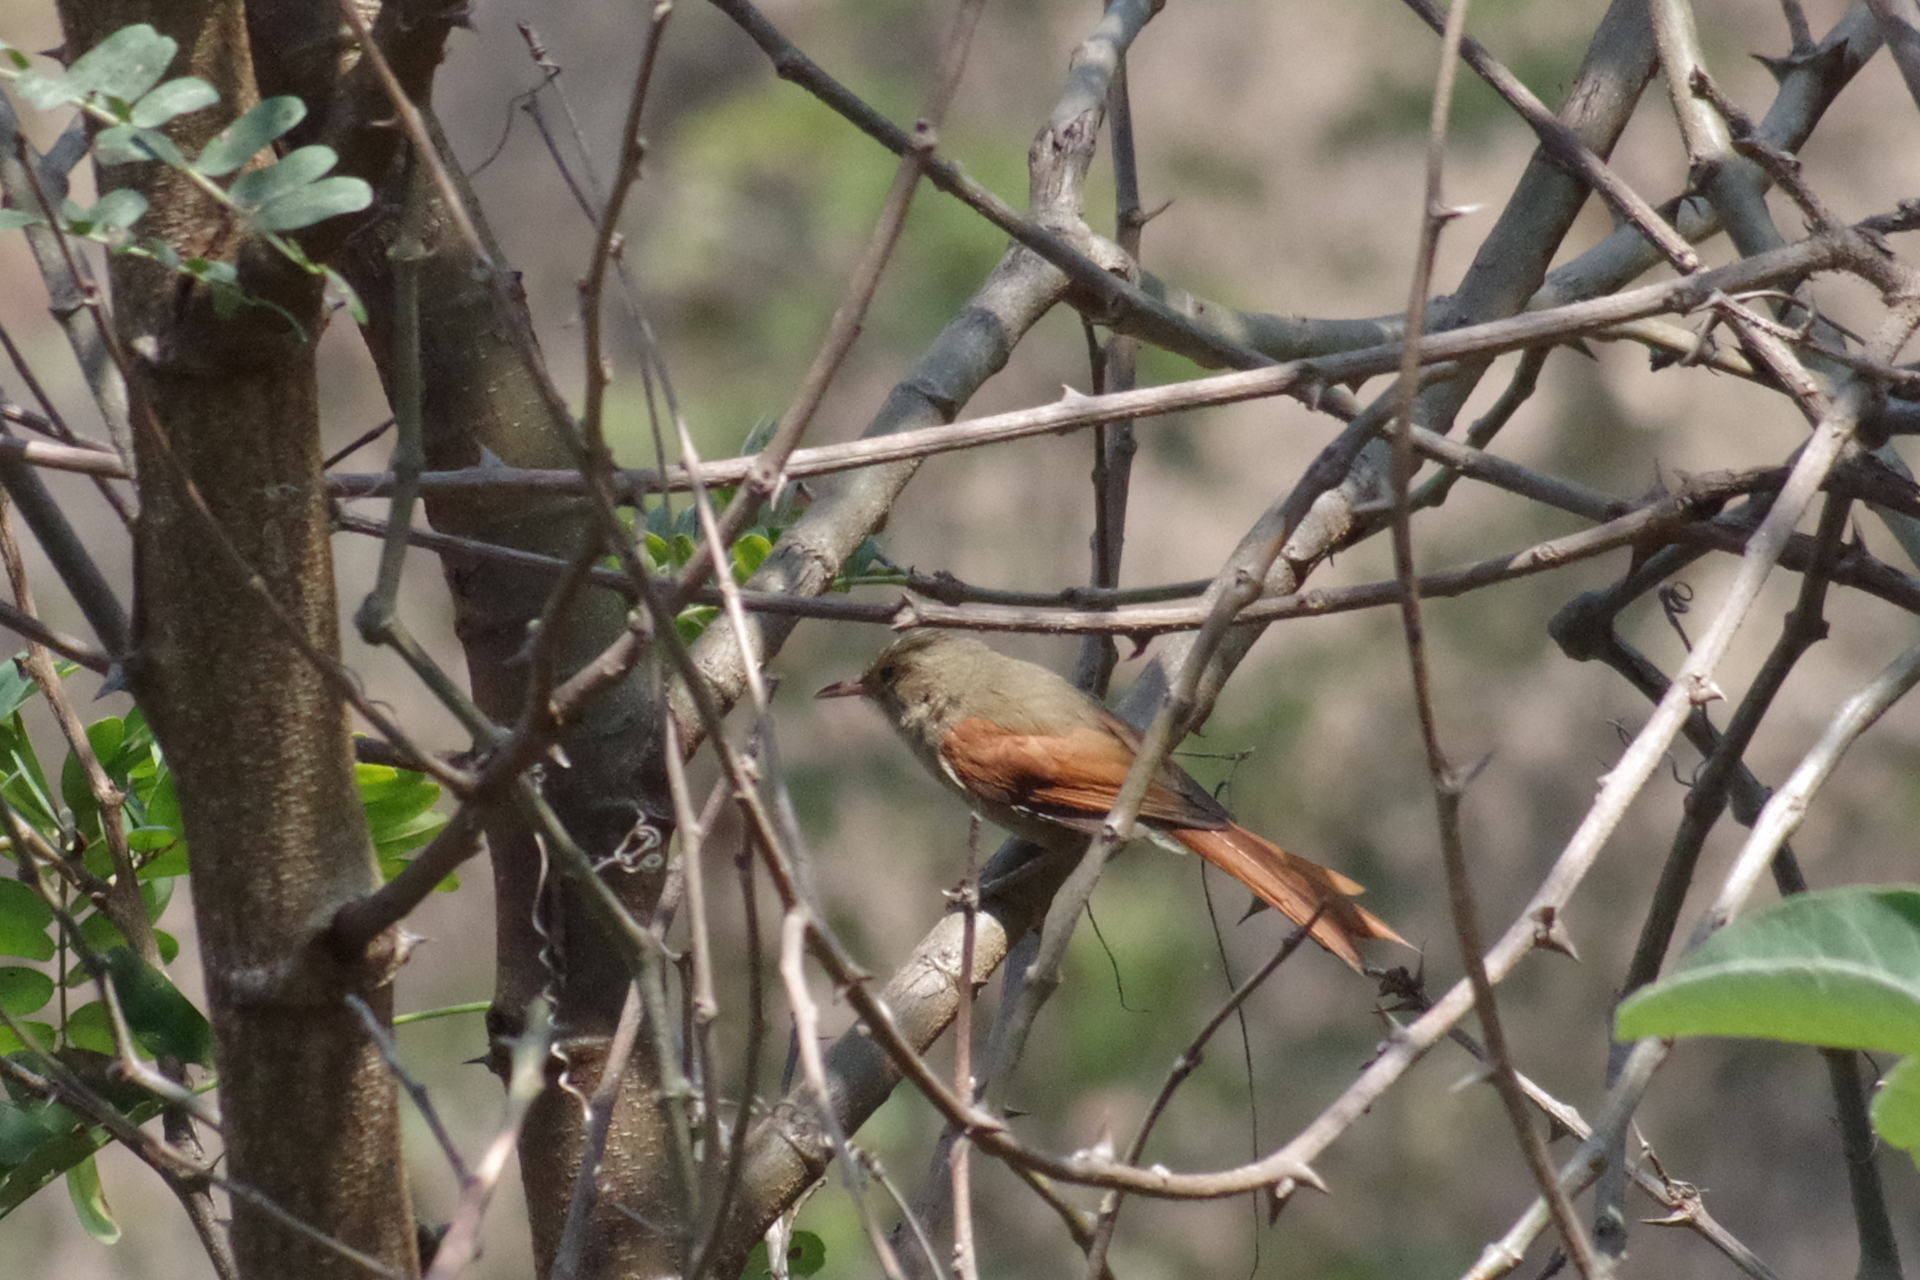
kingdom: Animalia
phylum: Chordata
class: Aves
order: Passeriformes
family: Furnariidae
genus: Cranioleuca
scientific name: Cranioleuca subcristata
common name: Crested spinetail
